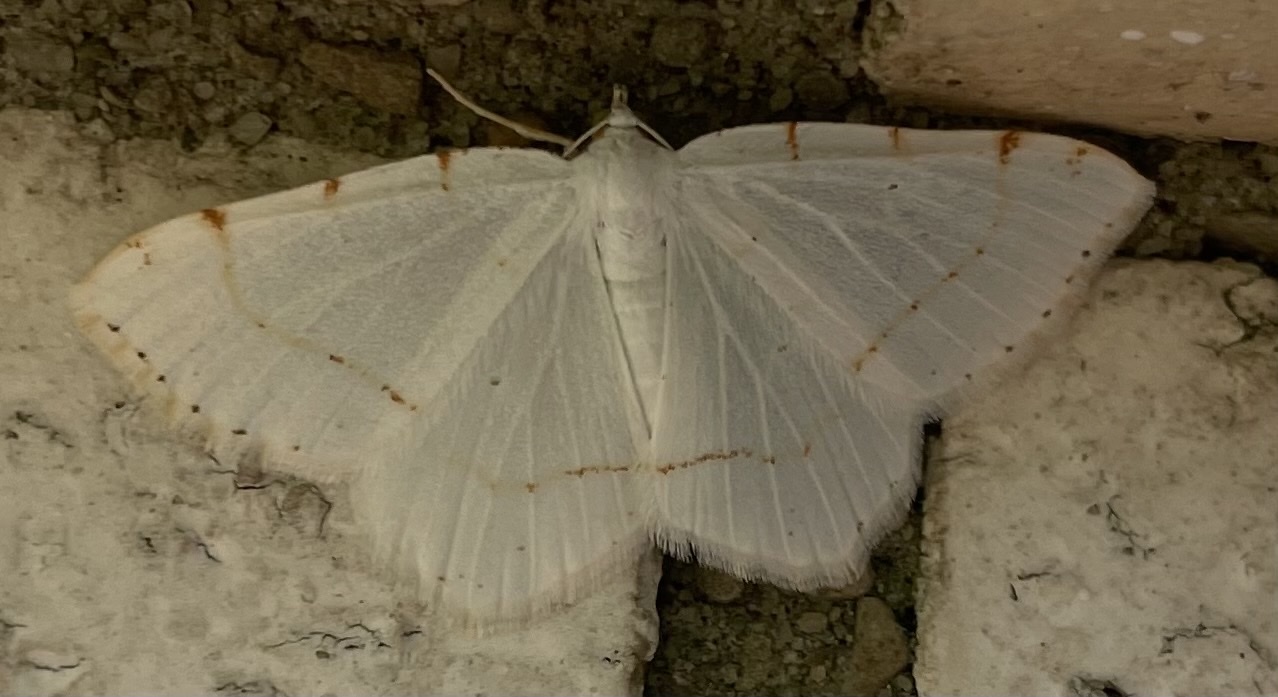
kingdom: Animalia
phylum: Arthropoda
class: Insecta
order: Lepidoptera
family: Geometridae
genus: Macaria
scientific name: Macaria pustularia
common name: Lesser maple spanworm moth
